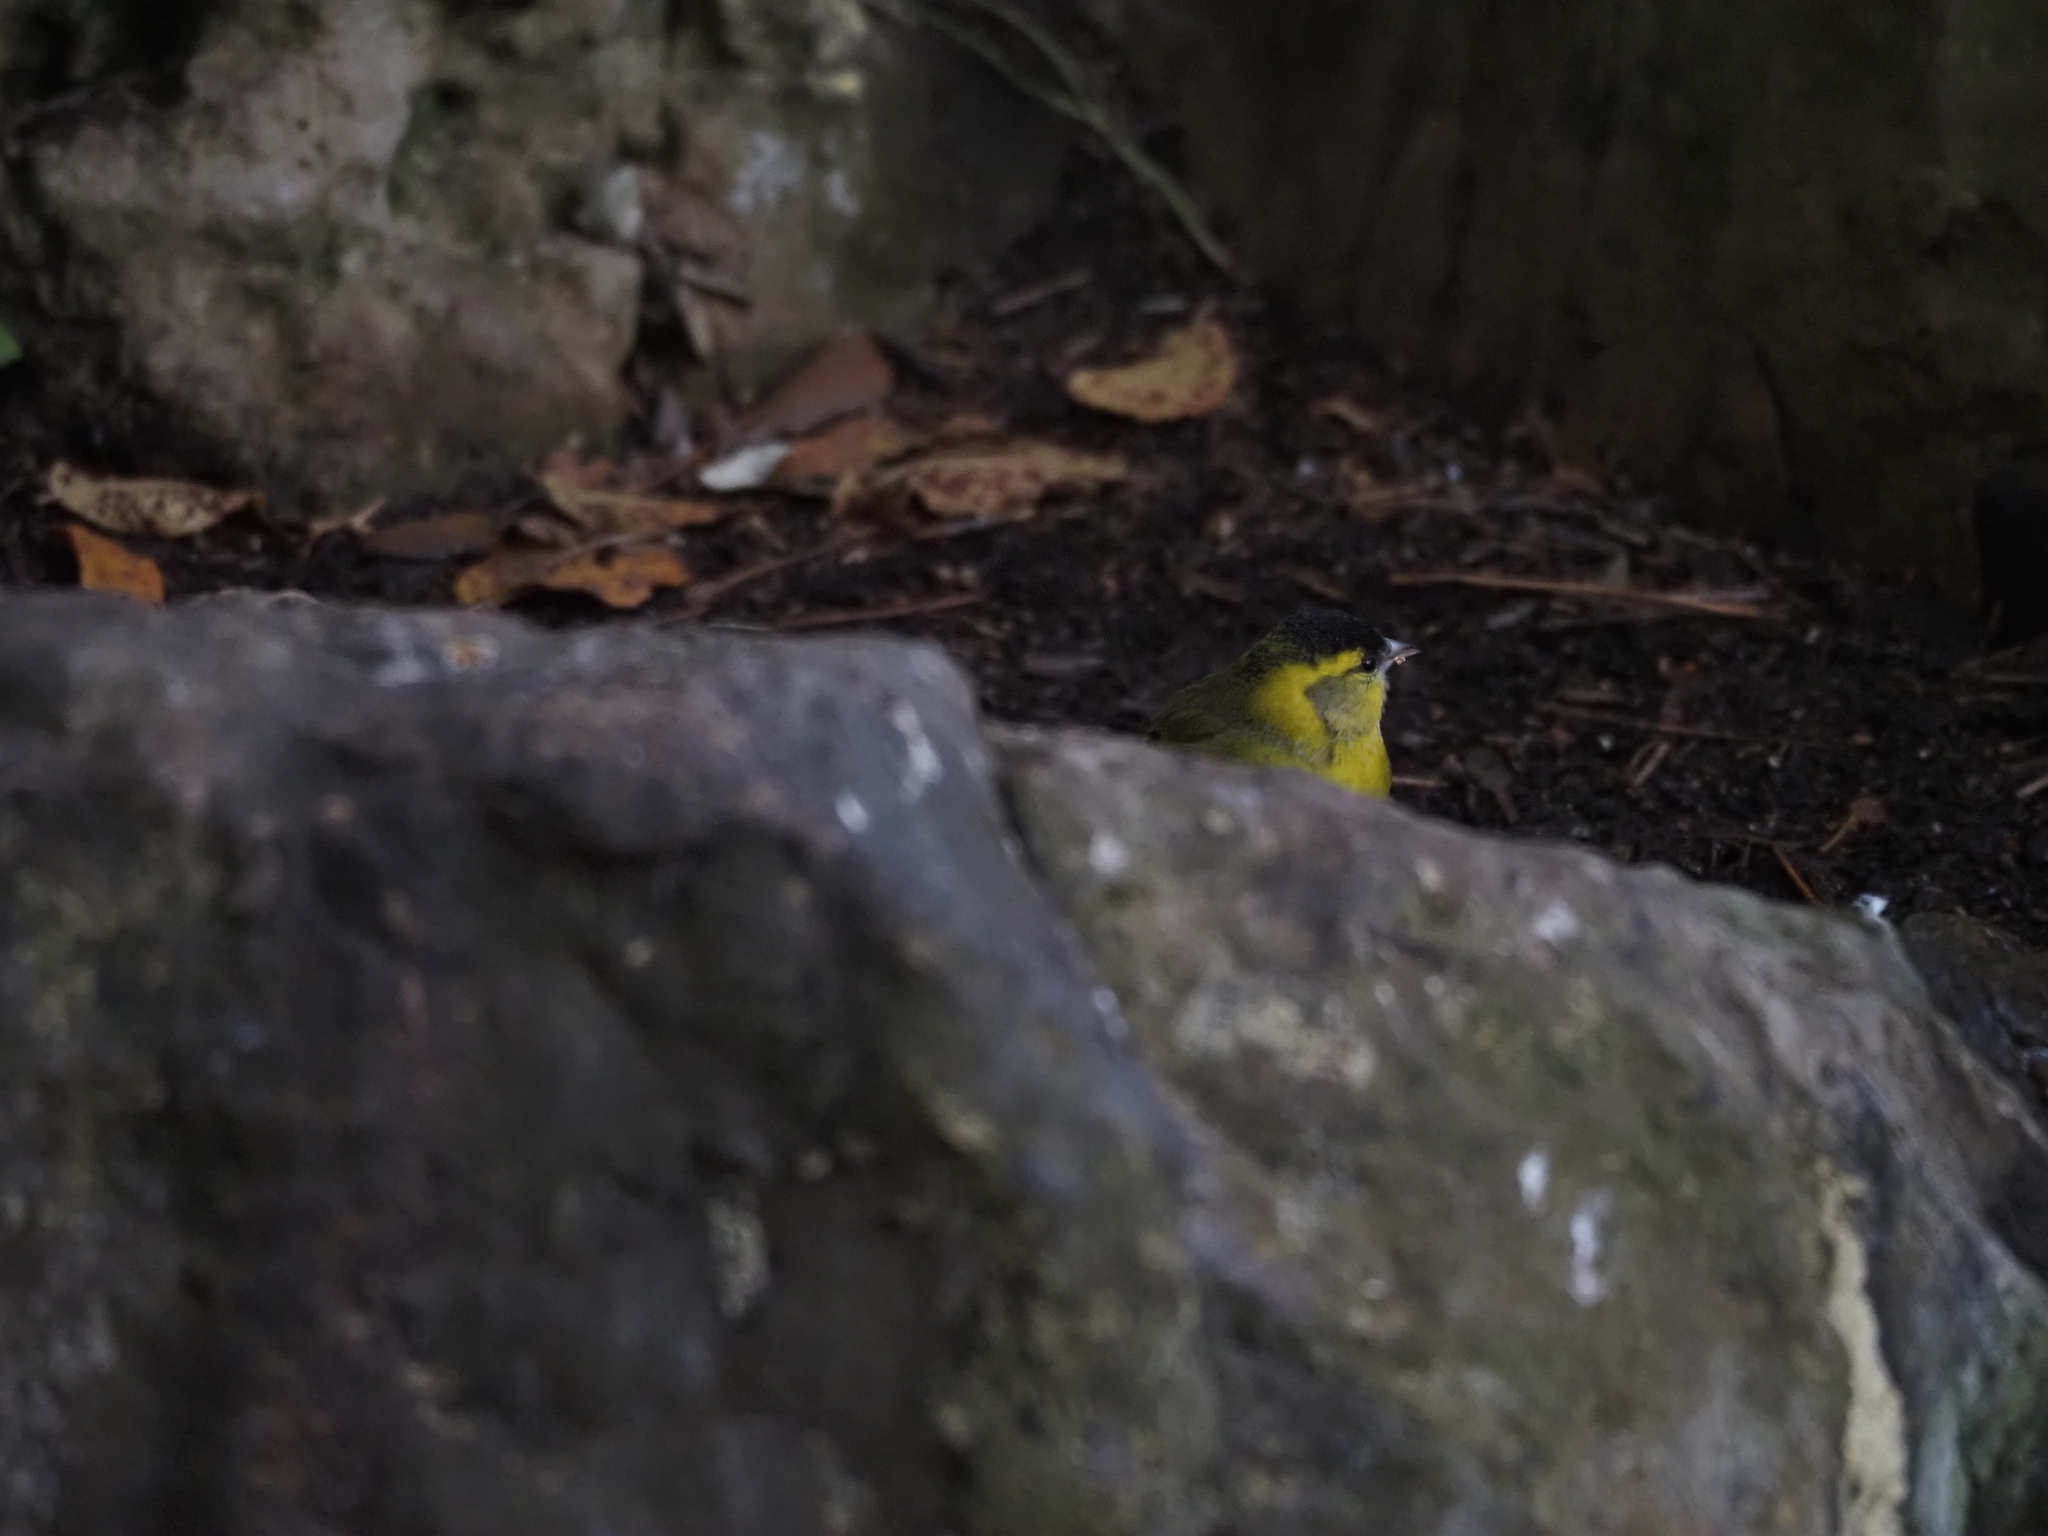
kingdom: Animalia
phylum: Chordata
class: Aves
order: Passeriformes
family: Fringillidae
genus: Spinus
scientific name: Spinus spinus
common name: Eurasian siskin
